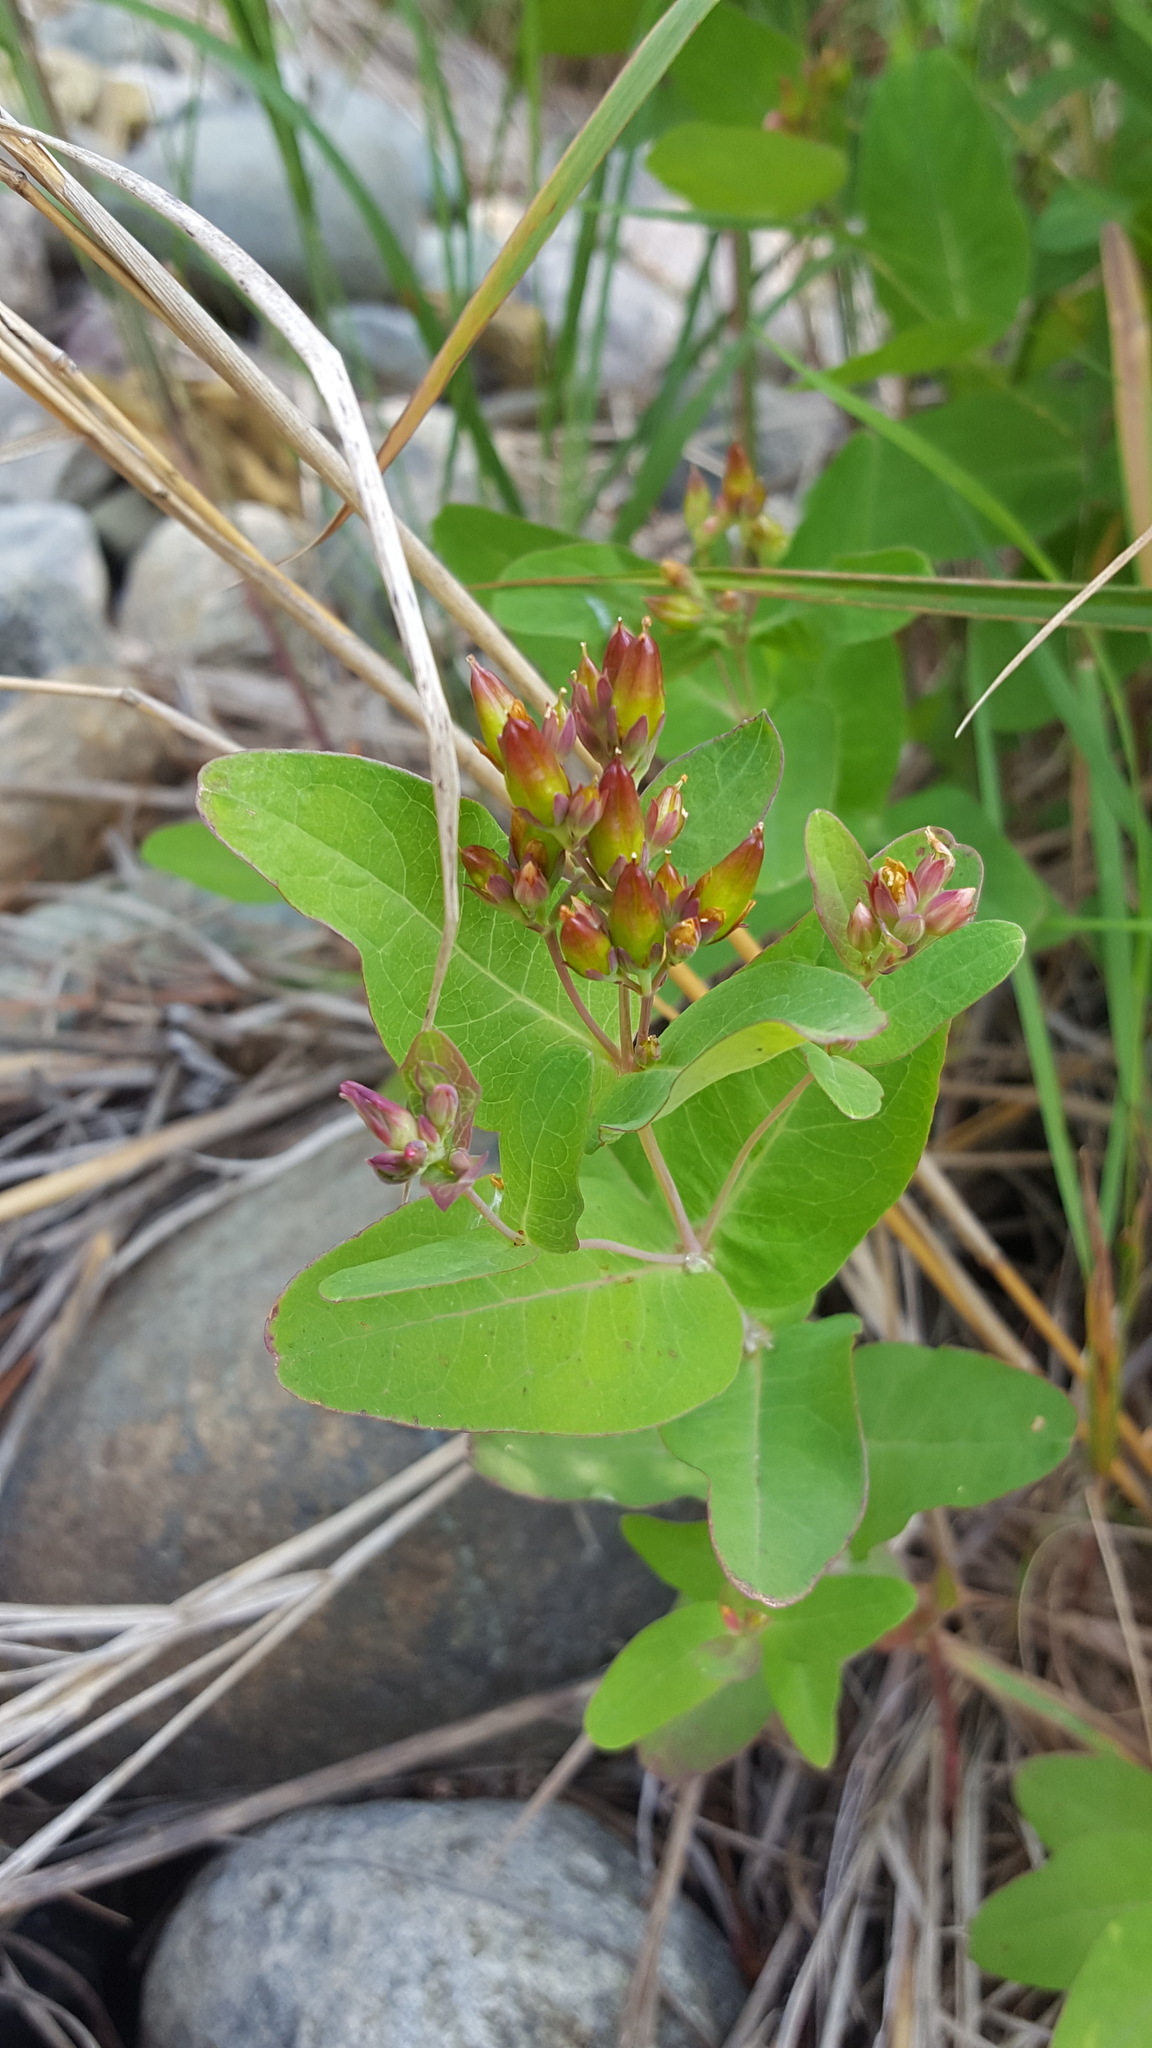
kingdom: Plantae
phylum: Tracheophyta
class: Magnoliopsida
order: Malpighiales
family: Hypericaceae
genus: Triadenum
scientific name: Triadenum fraseri
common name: Fraser's marsh st. johnswort
